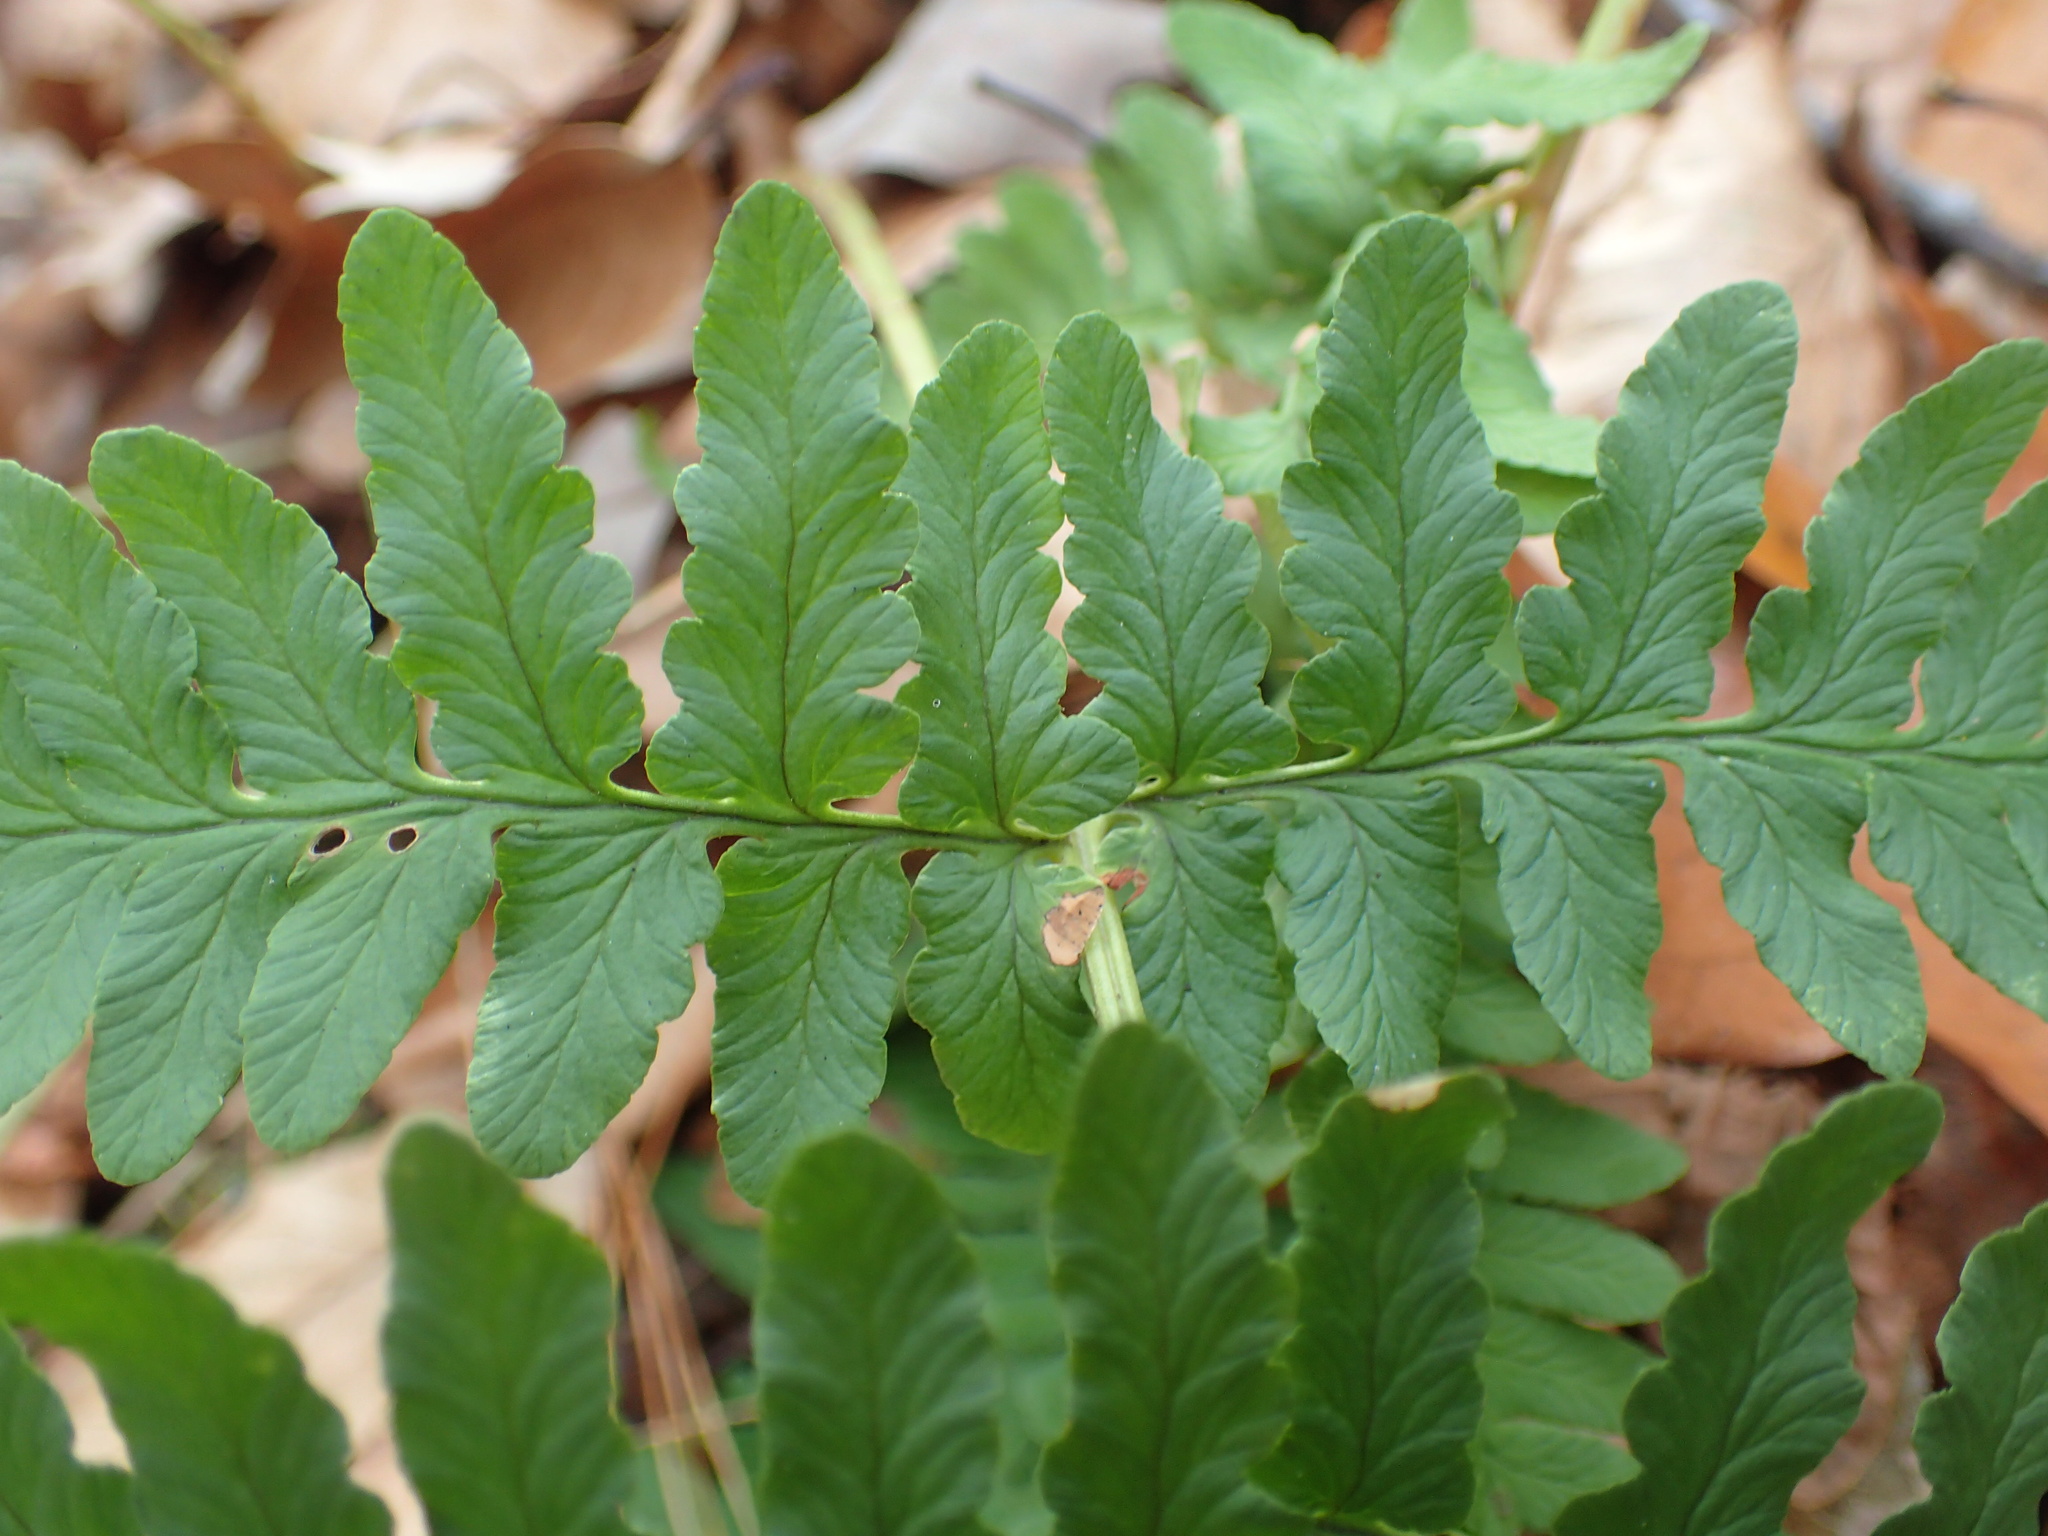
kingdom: Plantae
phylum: Tracheophyta
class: Polypodiopsida
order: Polypodiales
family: Dryopteridaceae
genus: Dryopteris
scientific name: Dryopteris marginalis
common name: Marginal wood fern
